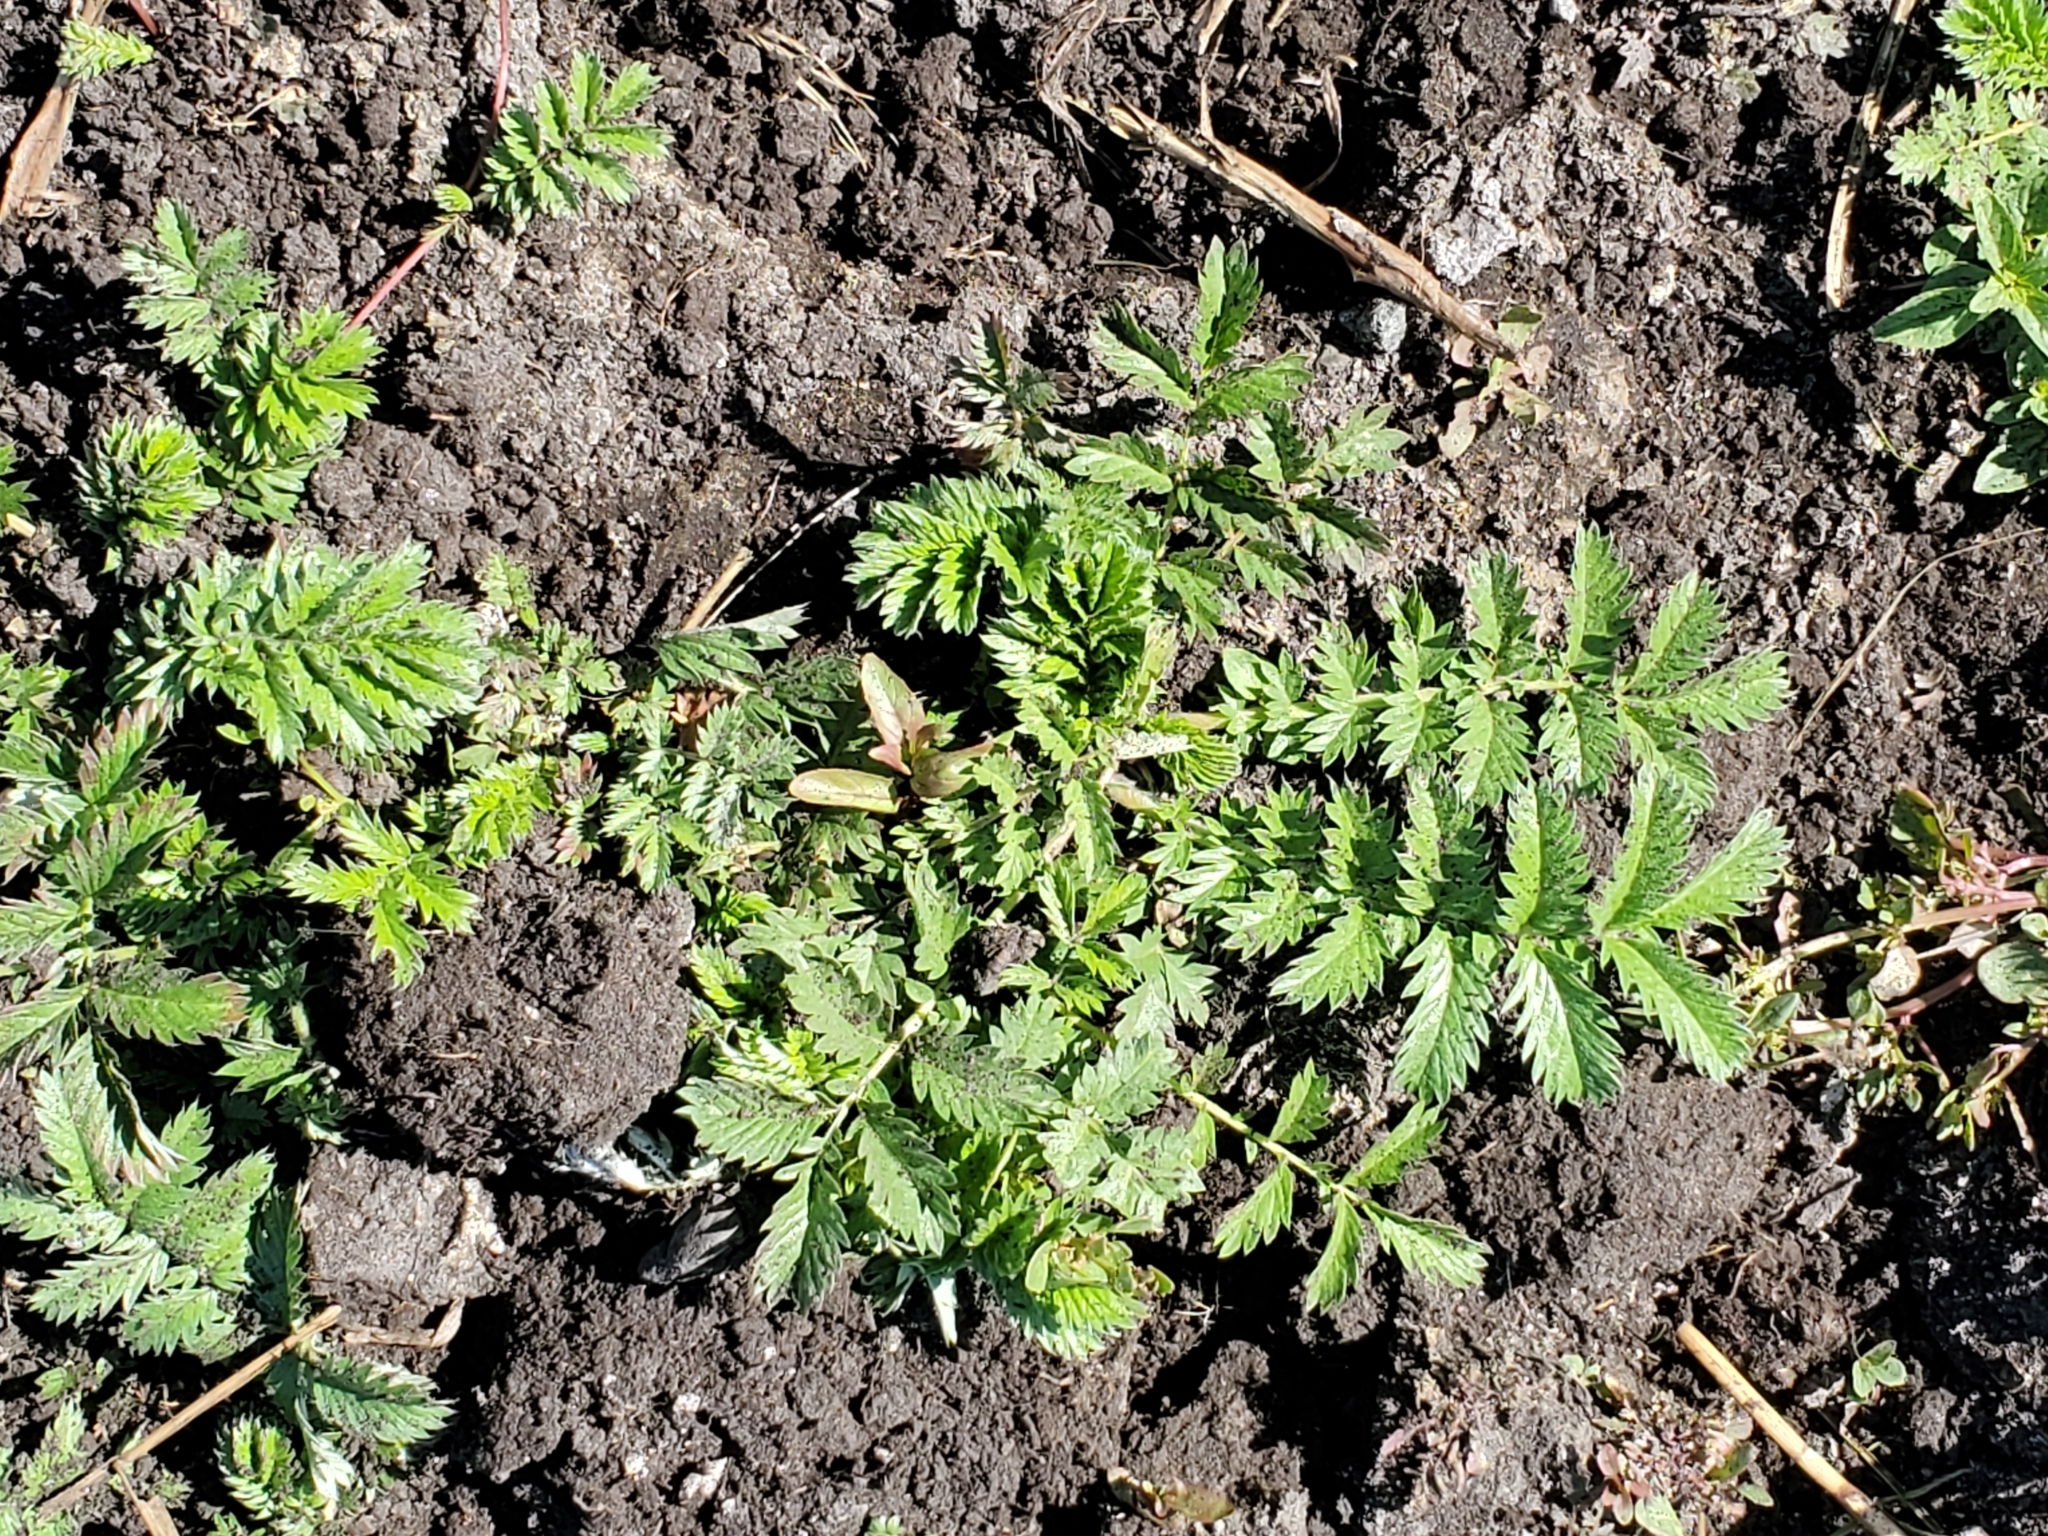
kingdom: Plantae
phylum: Tracheophyta
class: Magnoliopsida
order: Rosales
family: Rosaceae
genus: Argentina
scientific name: Argentina anserina
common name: Common silverweed
